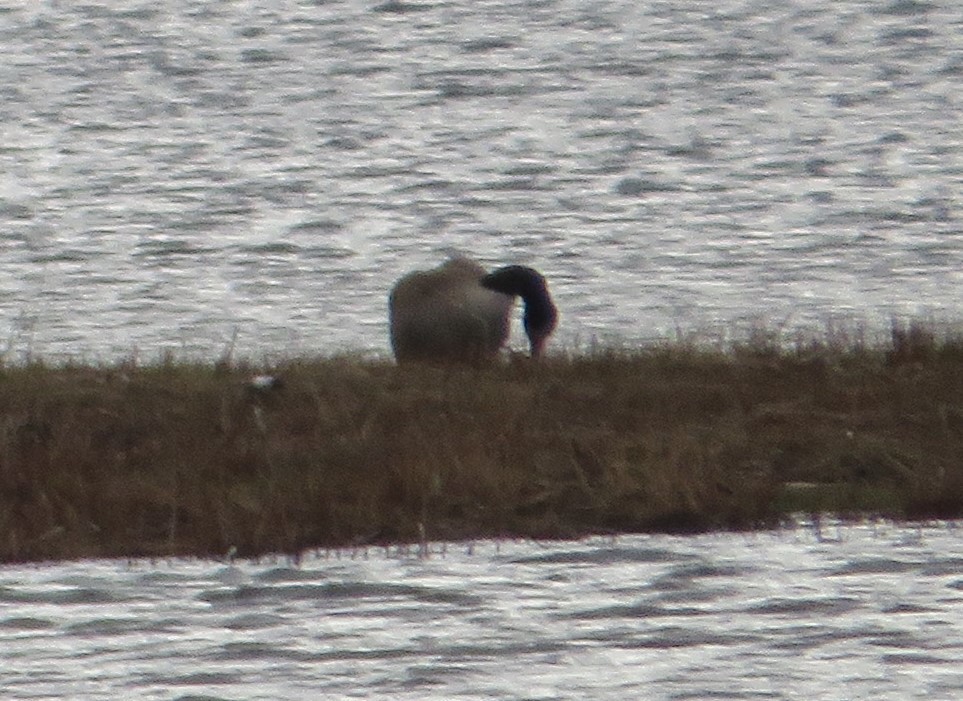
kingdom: Animalia
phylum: Chordata
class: Aves
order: Anseriformes
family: Anatidae
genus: Branta
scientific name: Branta canadensis
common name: Canada goose
